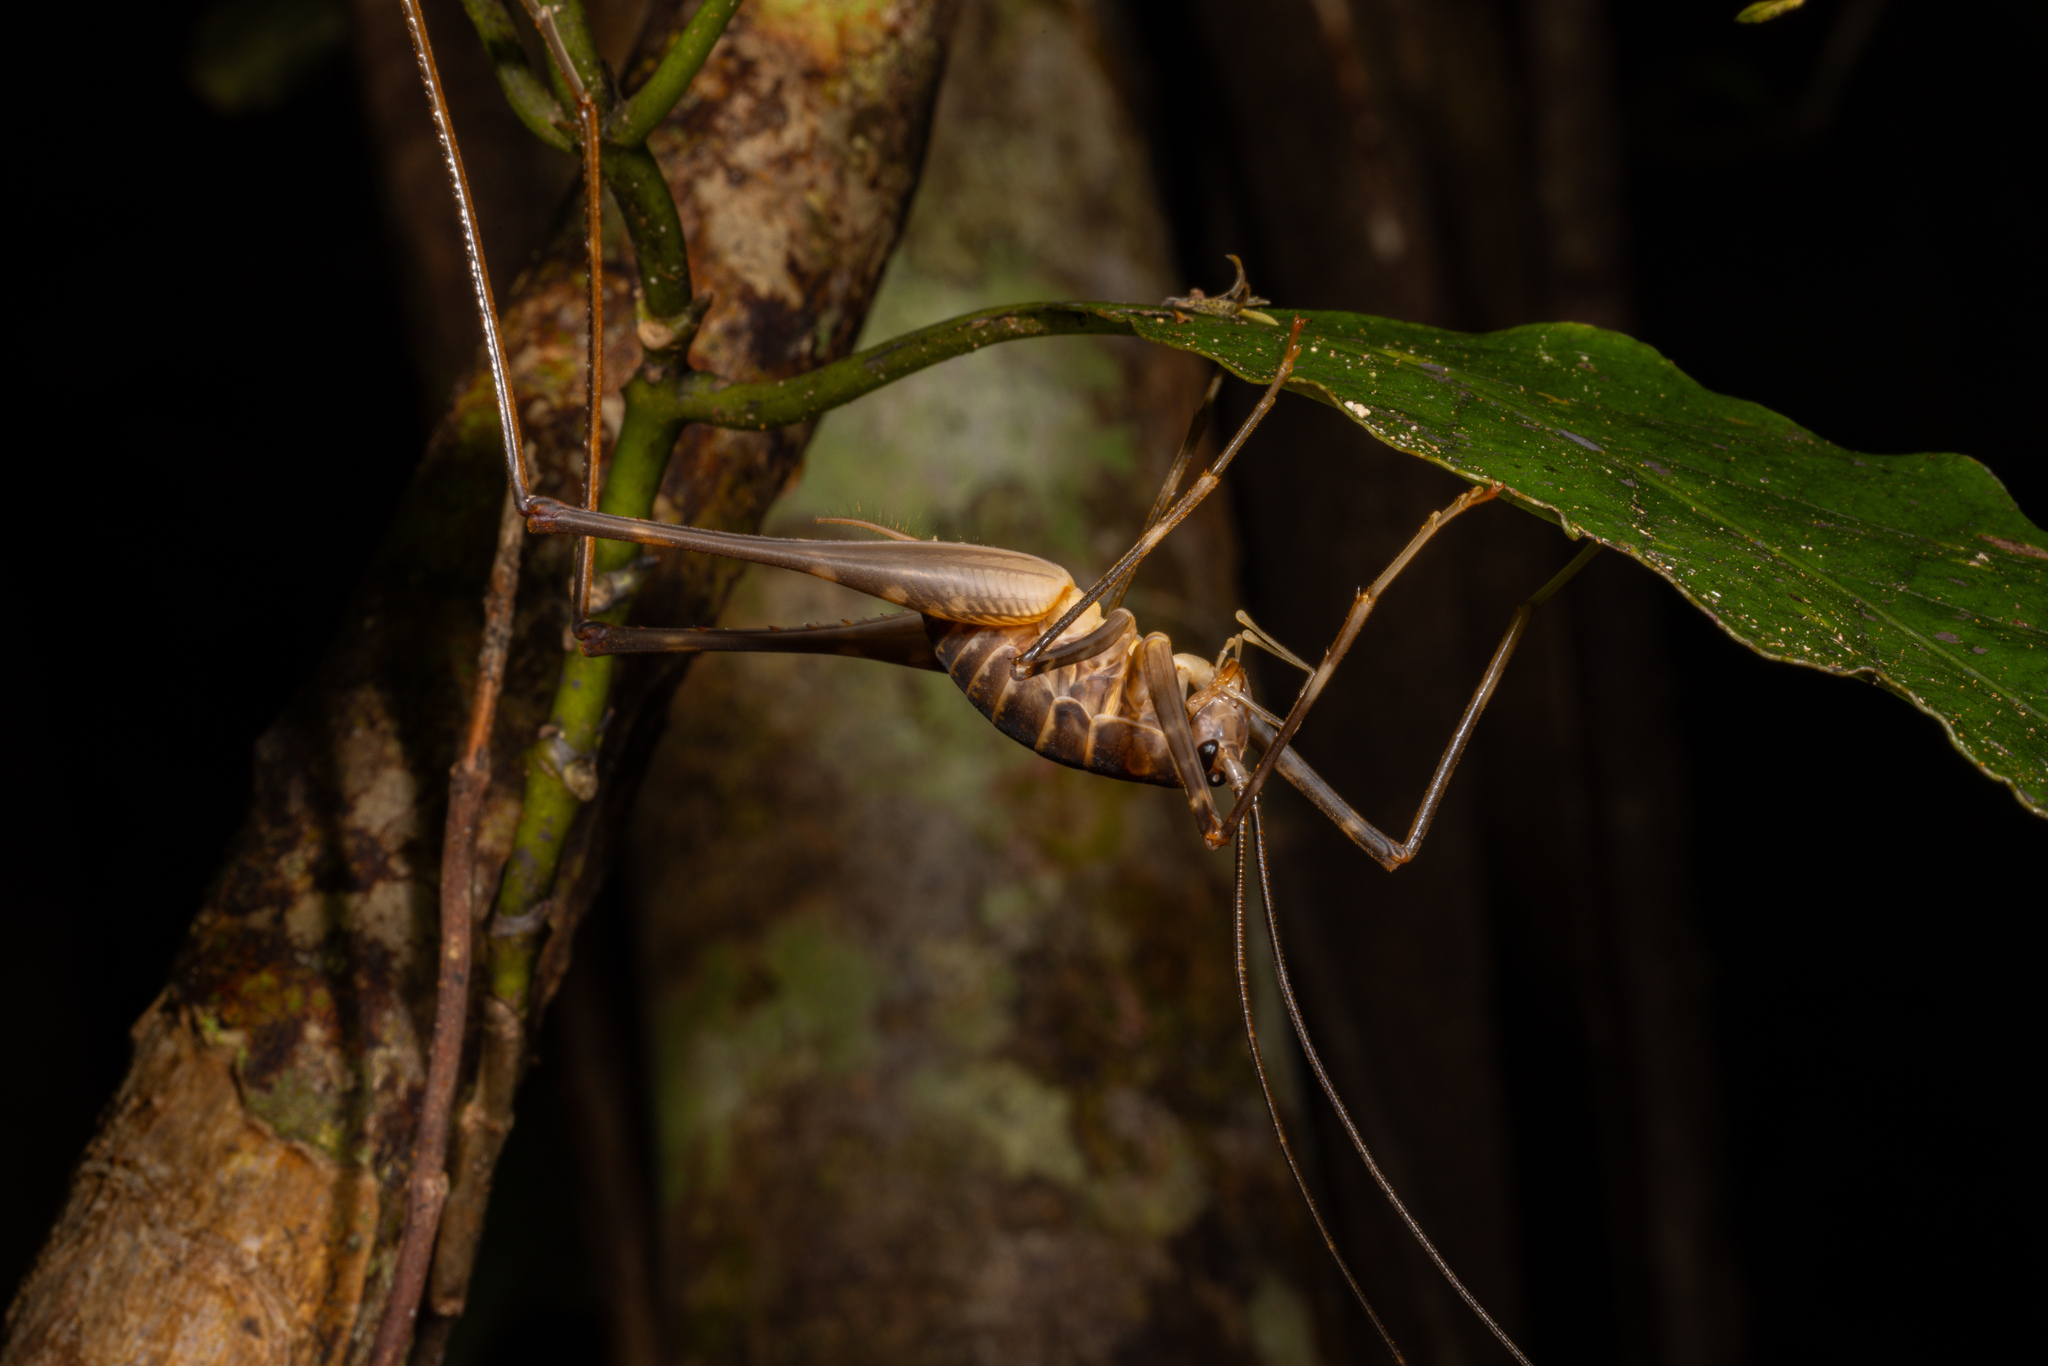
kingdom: Animalia
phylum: Arthropoda
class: Insecta
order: Orthoptera
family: Rhaphidophoridae
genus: Pachyrhamma
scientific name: Pachyrhamma acanthocera
